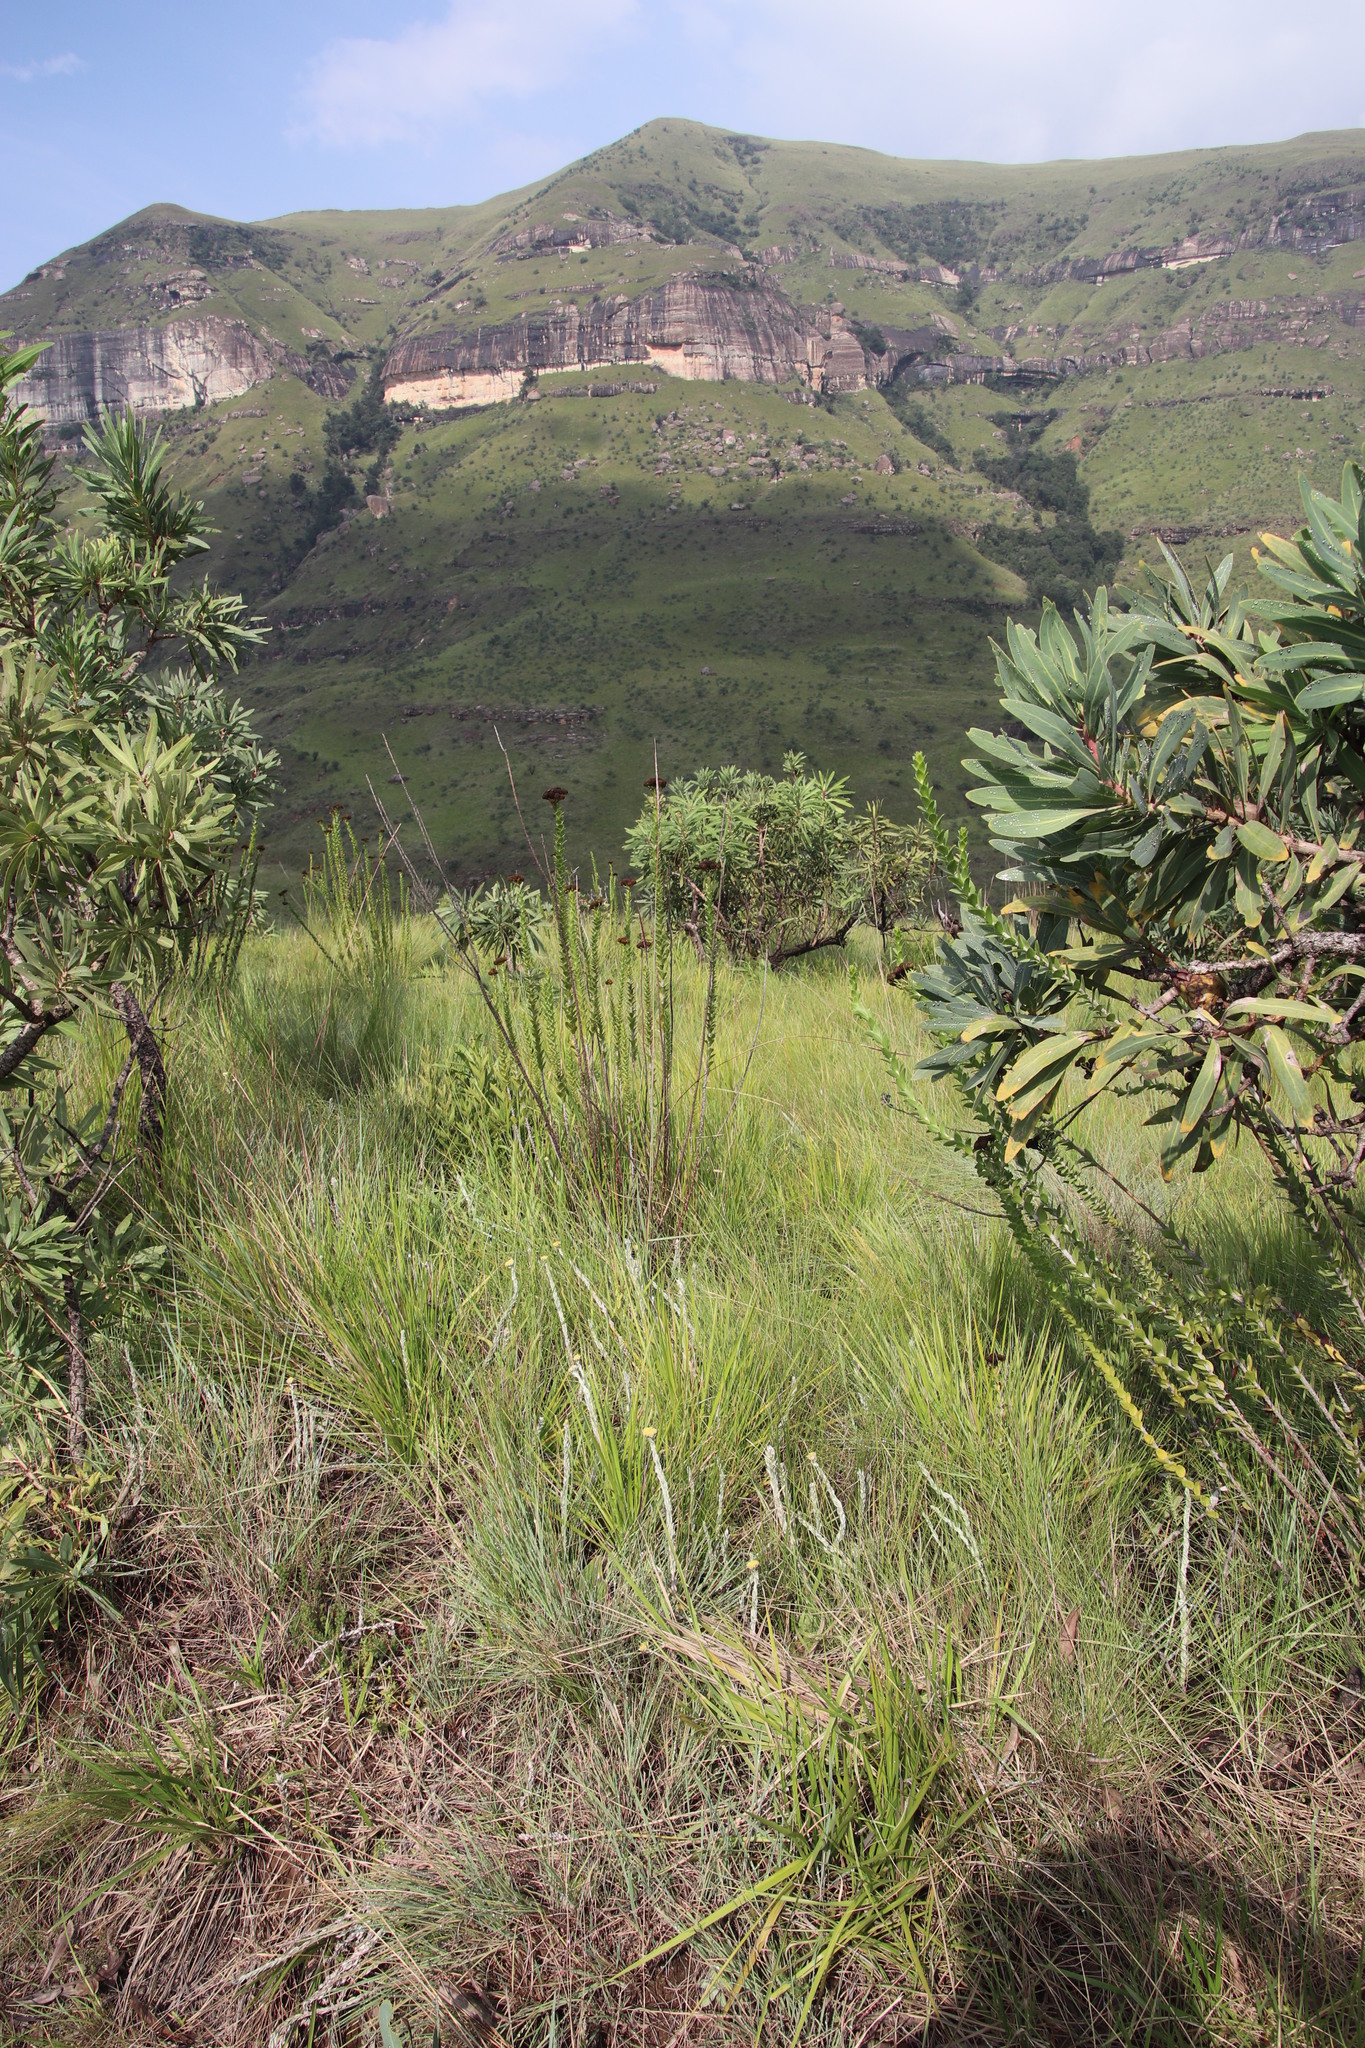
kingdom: Plantae
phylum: Tracheophyta
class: Magnoliopsida
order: Asterales
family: Asteraceae
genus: Inulanthera
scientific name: Inulanthera leucoclada
